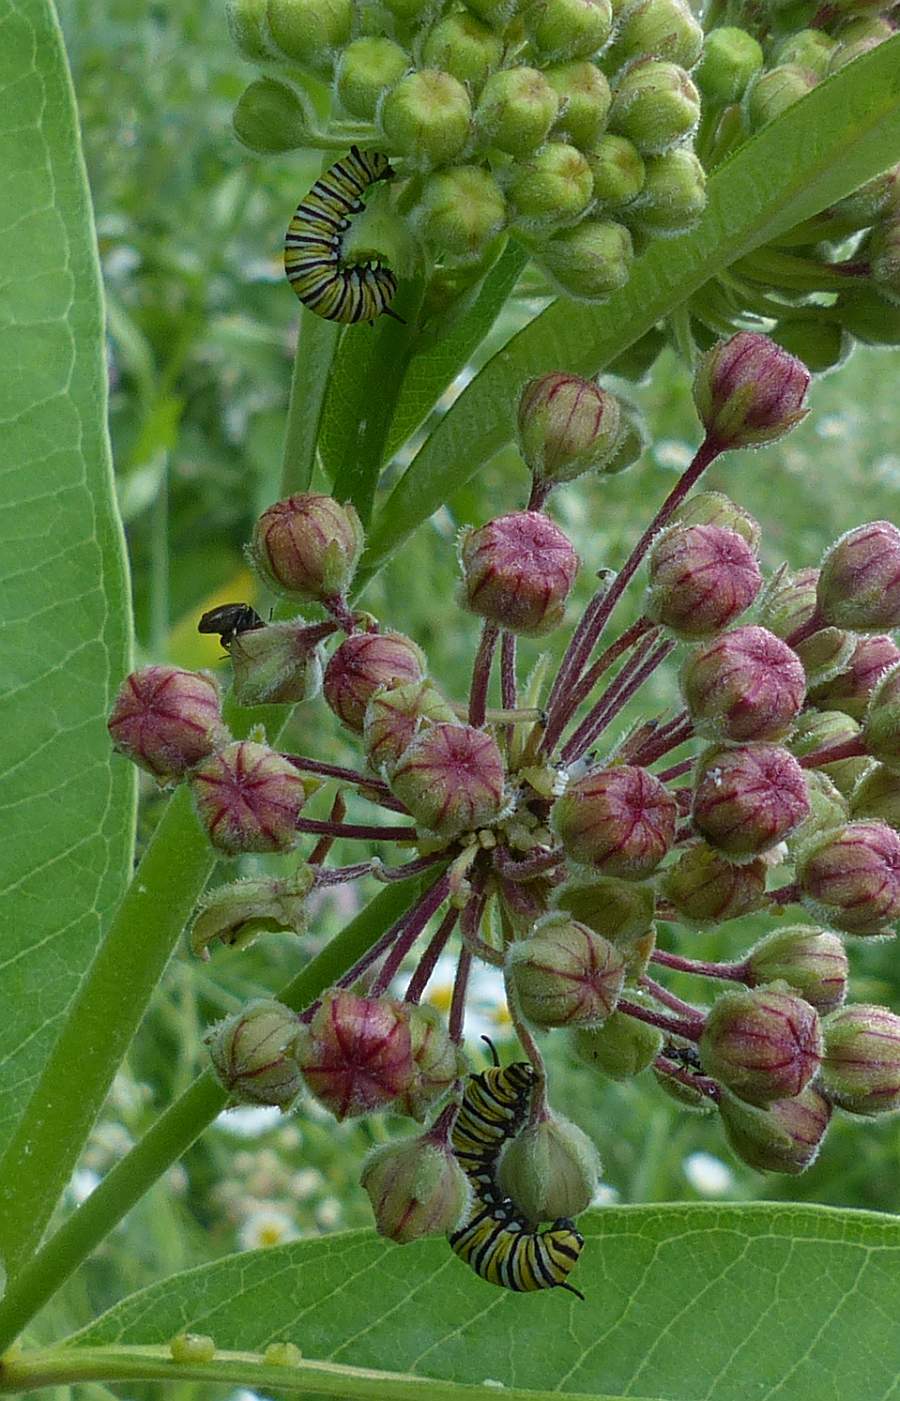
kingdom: Animalia
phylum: Arthropoda
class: Insecta
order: Lepidoptera
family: Nymphalidae
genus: Danaus
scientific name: Danaus plexippus
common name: Monarch
